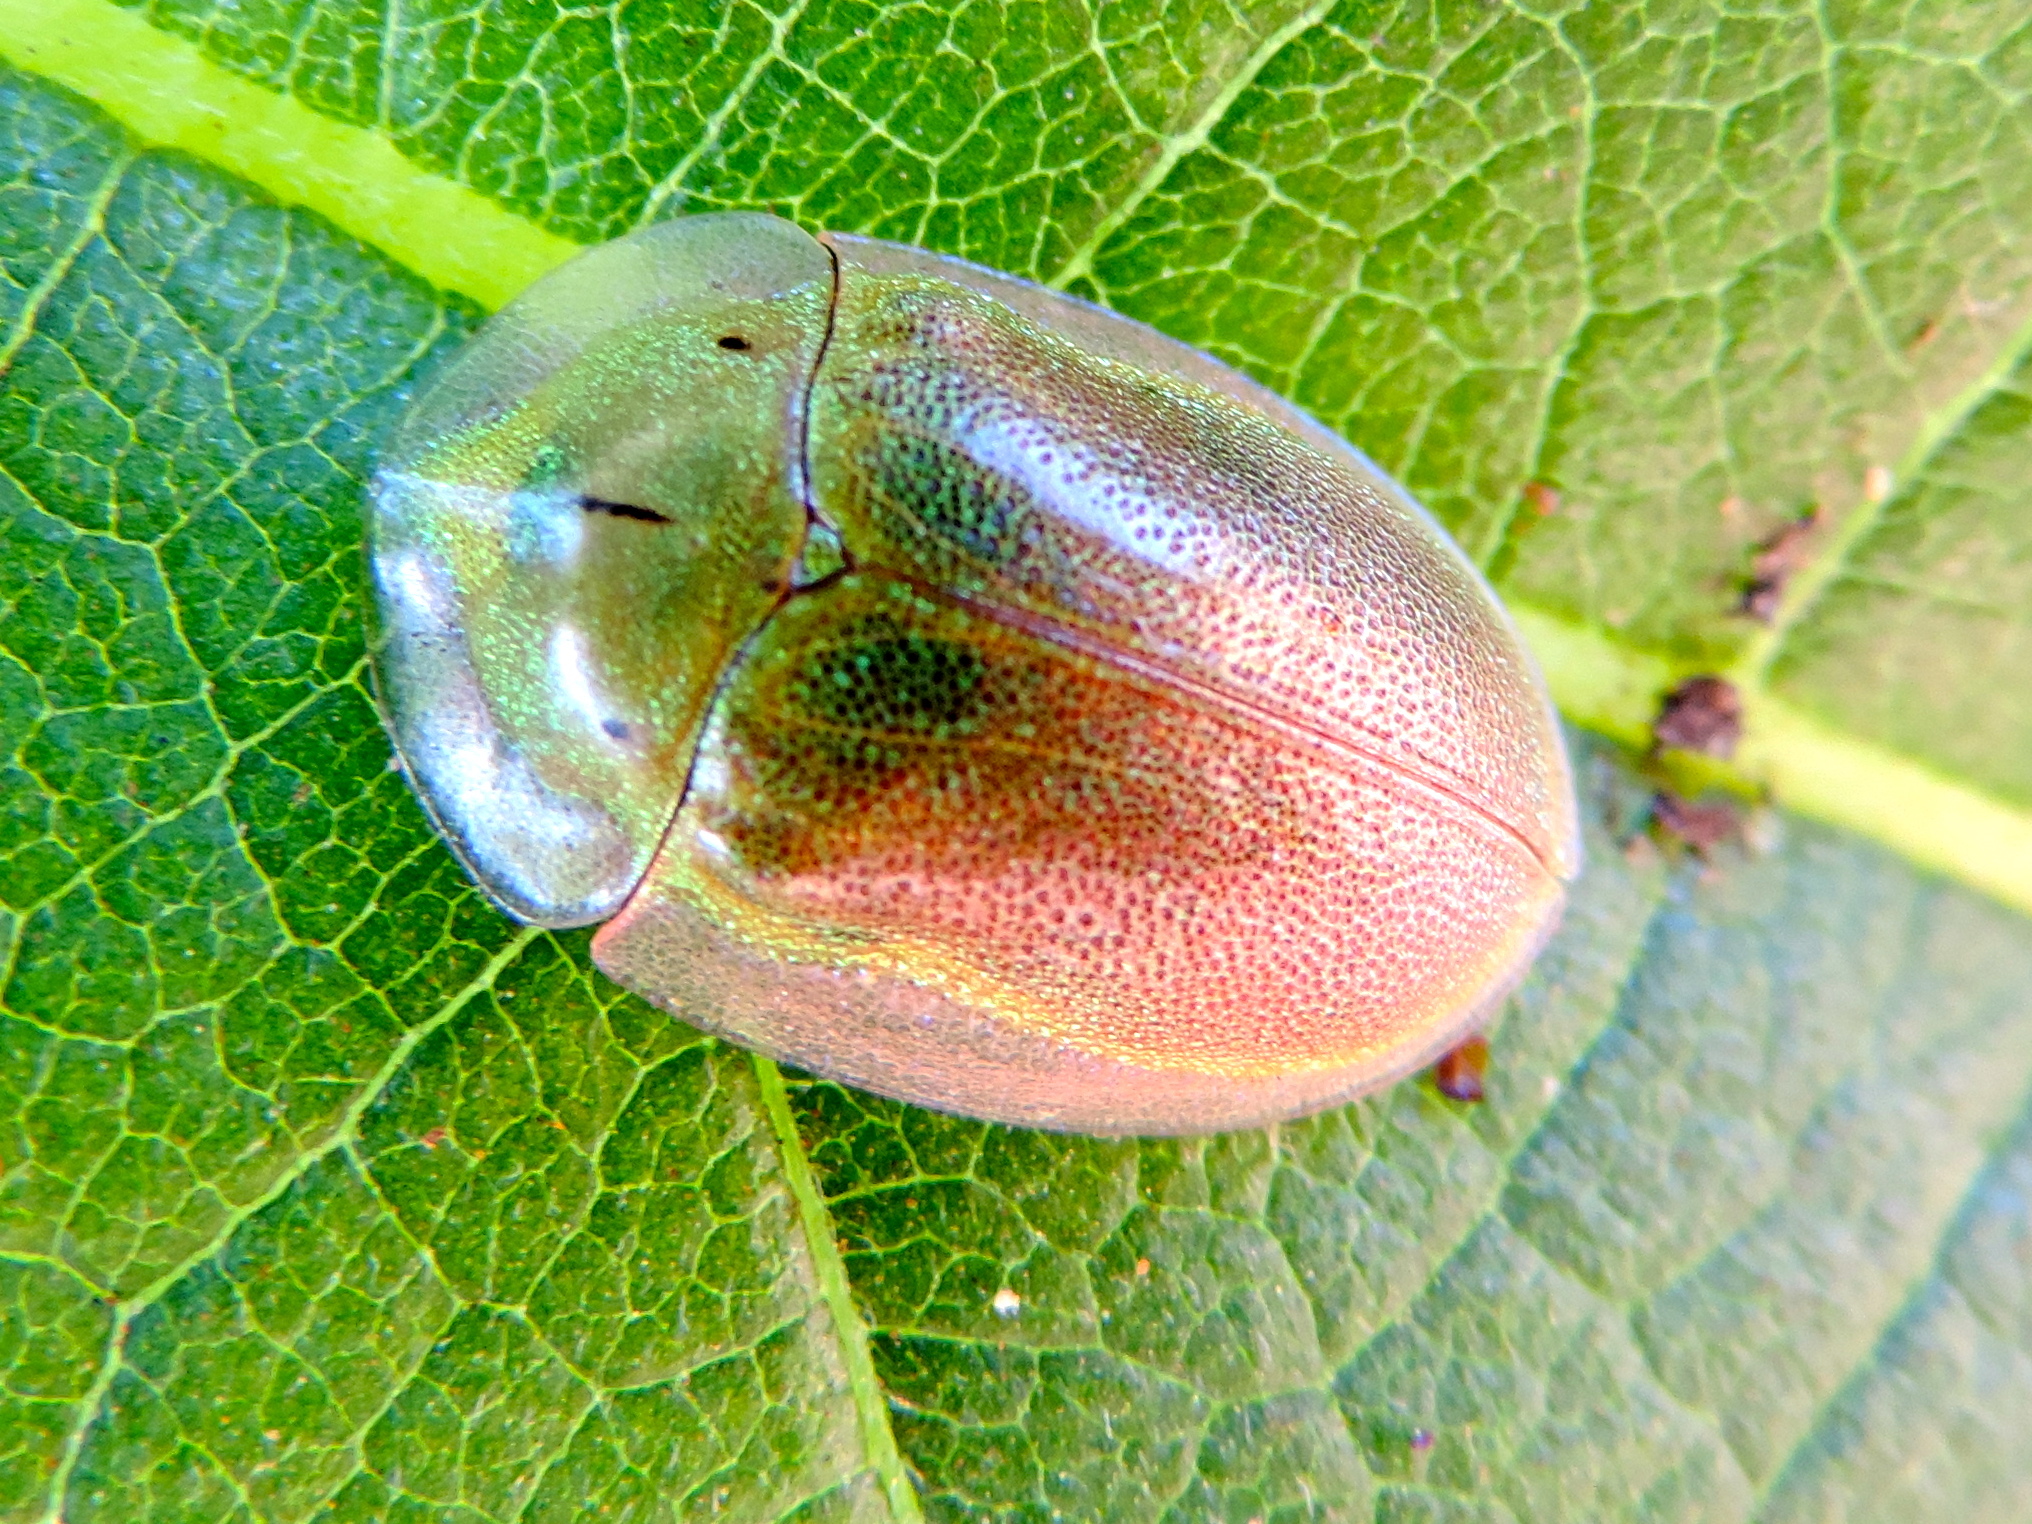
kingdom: Animalia
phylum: Arthropoda
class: Insecta
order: Coleoptera
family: Chrysomelidae
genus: Physonota
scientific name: Physonota arizonae
